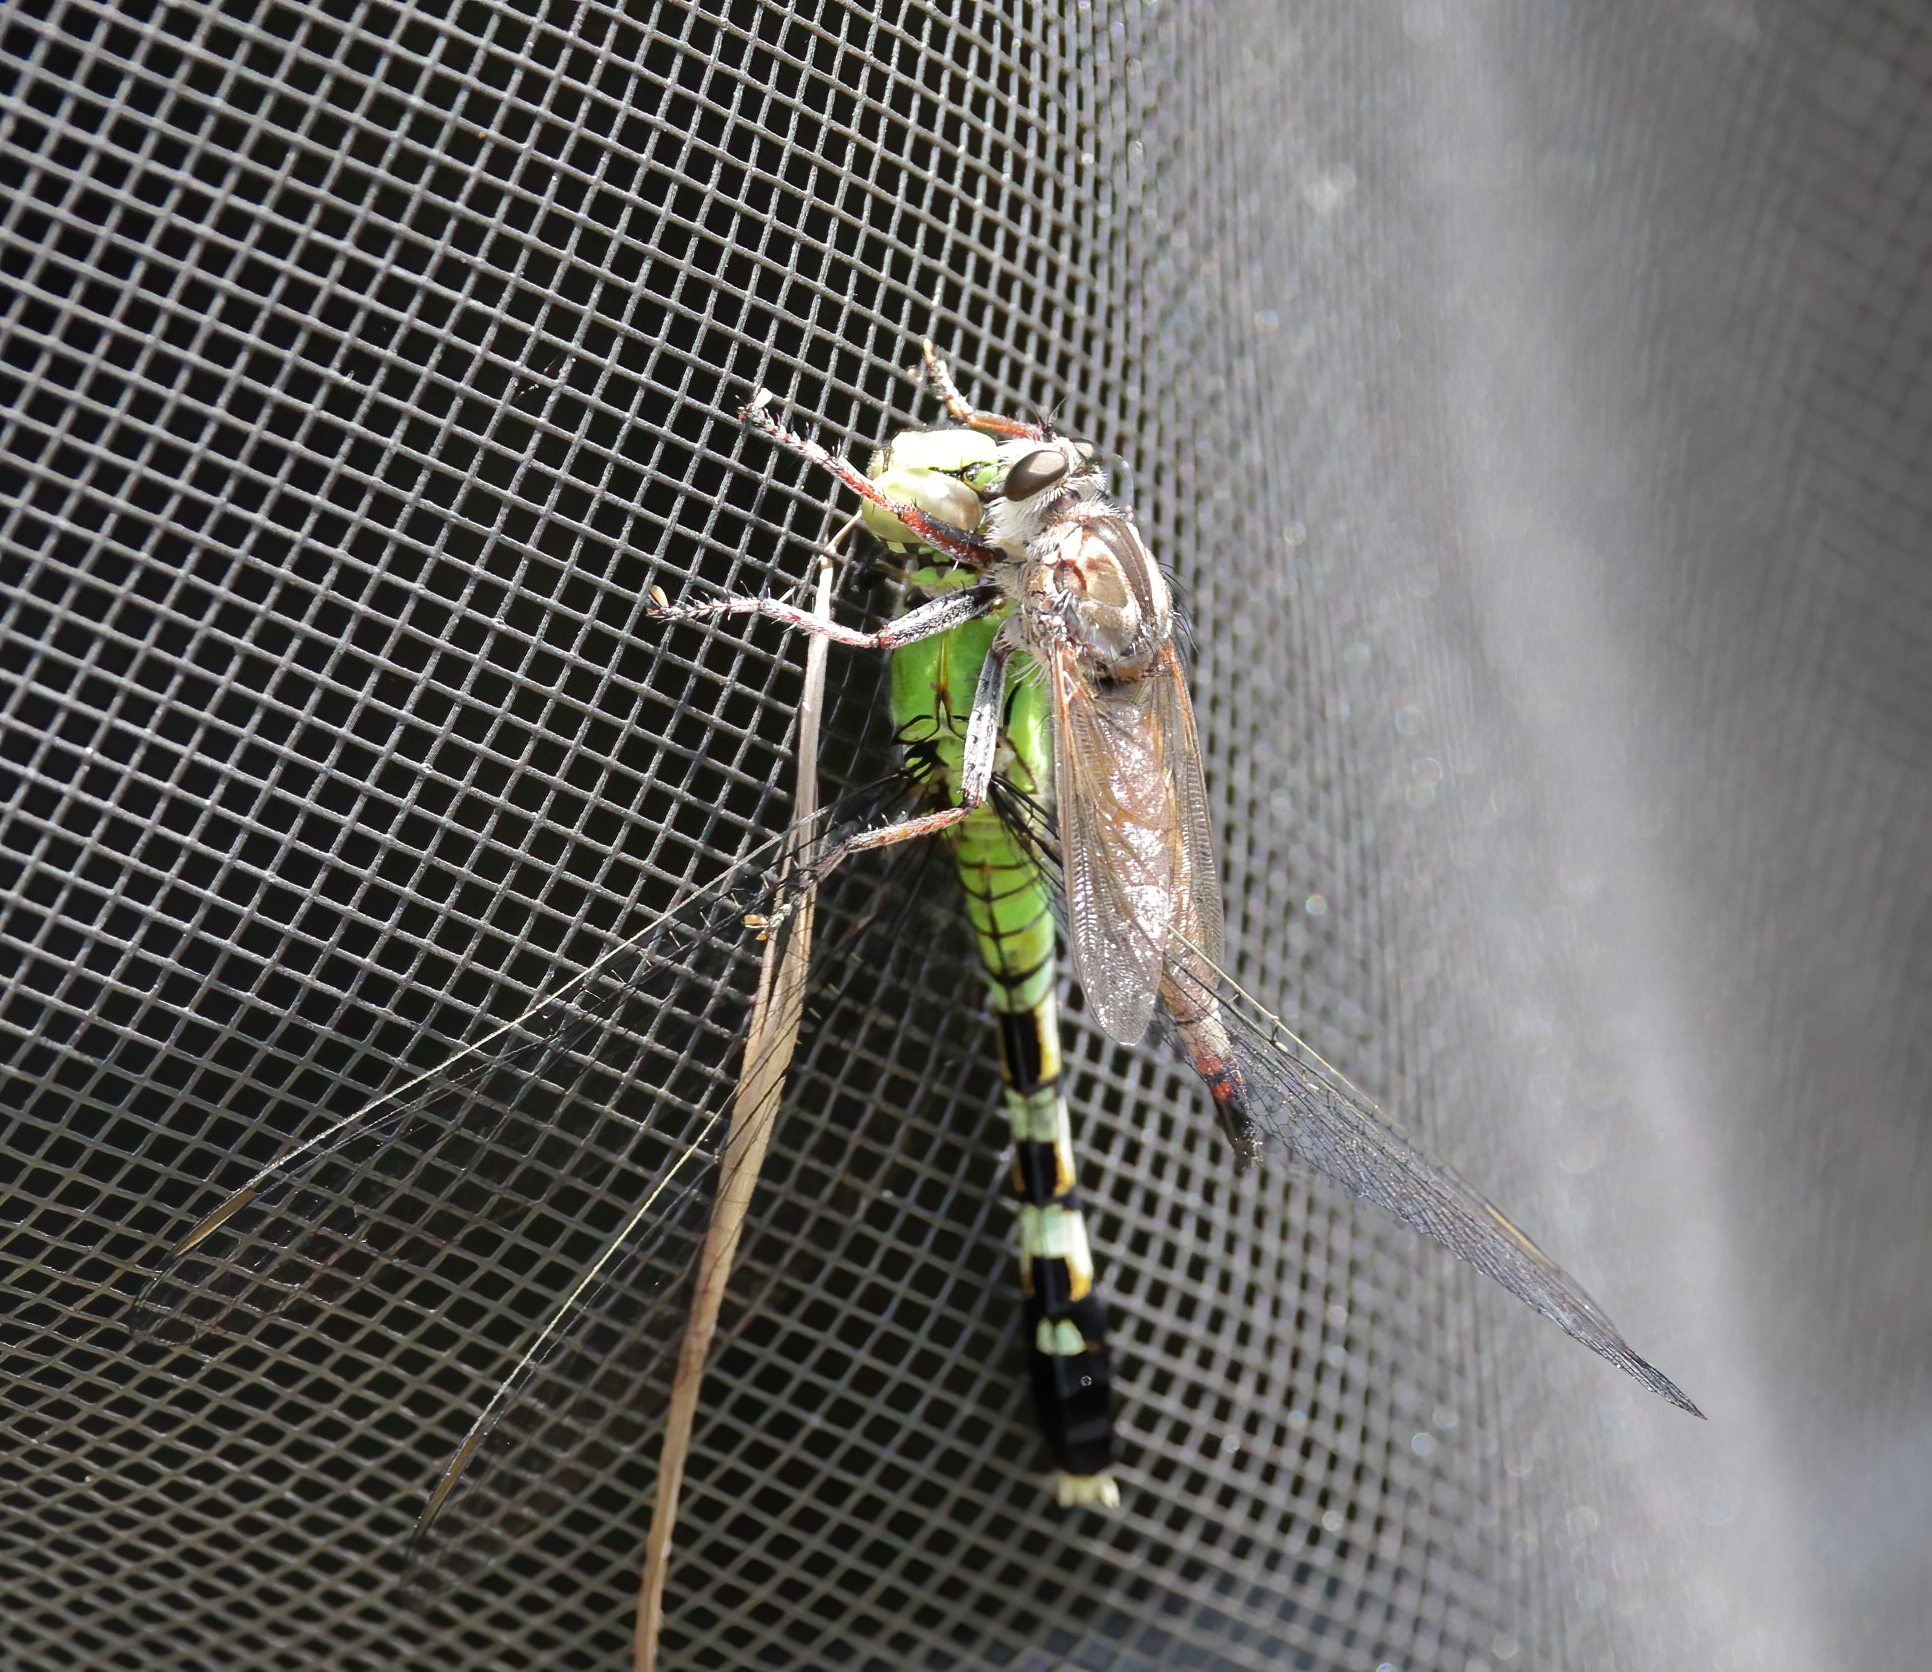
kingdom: Animalia
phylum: Arthropoda
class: Insecta
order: Odonata
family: Libellulidae
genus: Erythemis
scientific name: Erythemis simplicicollis
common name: Eastern pondhawk
